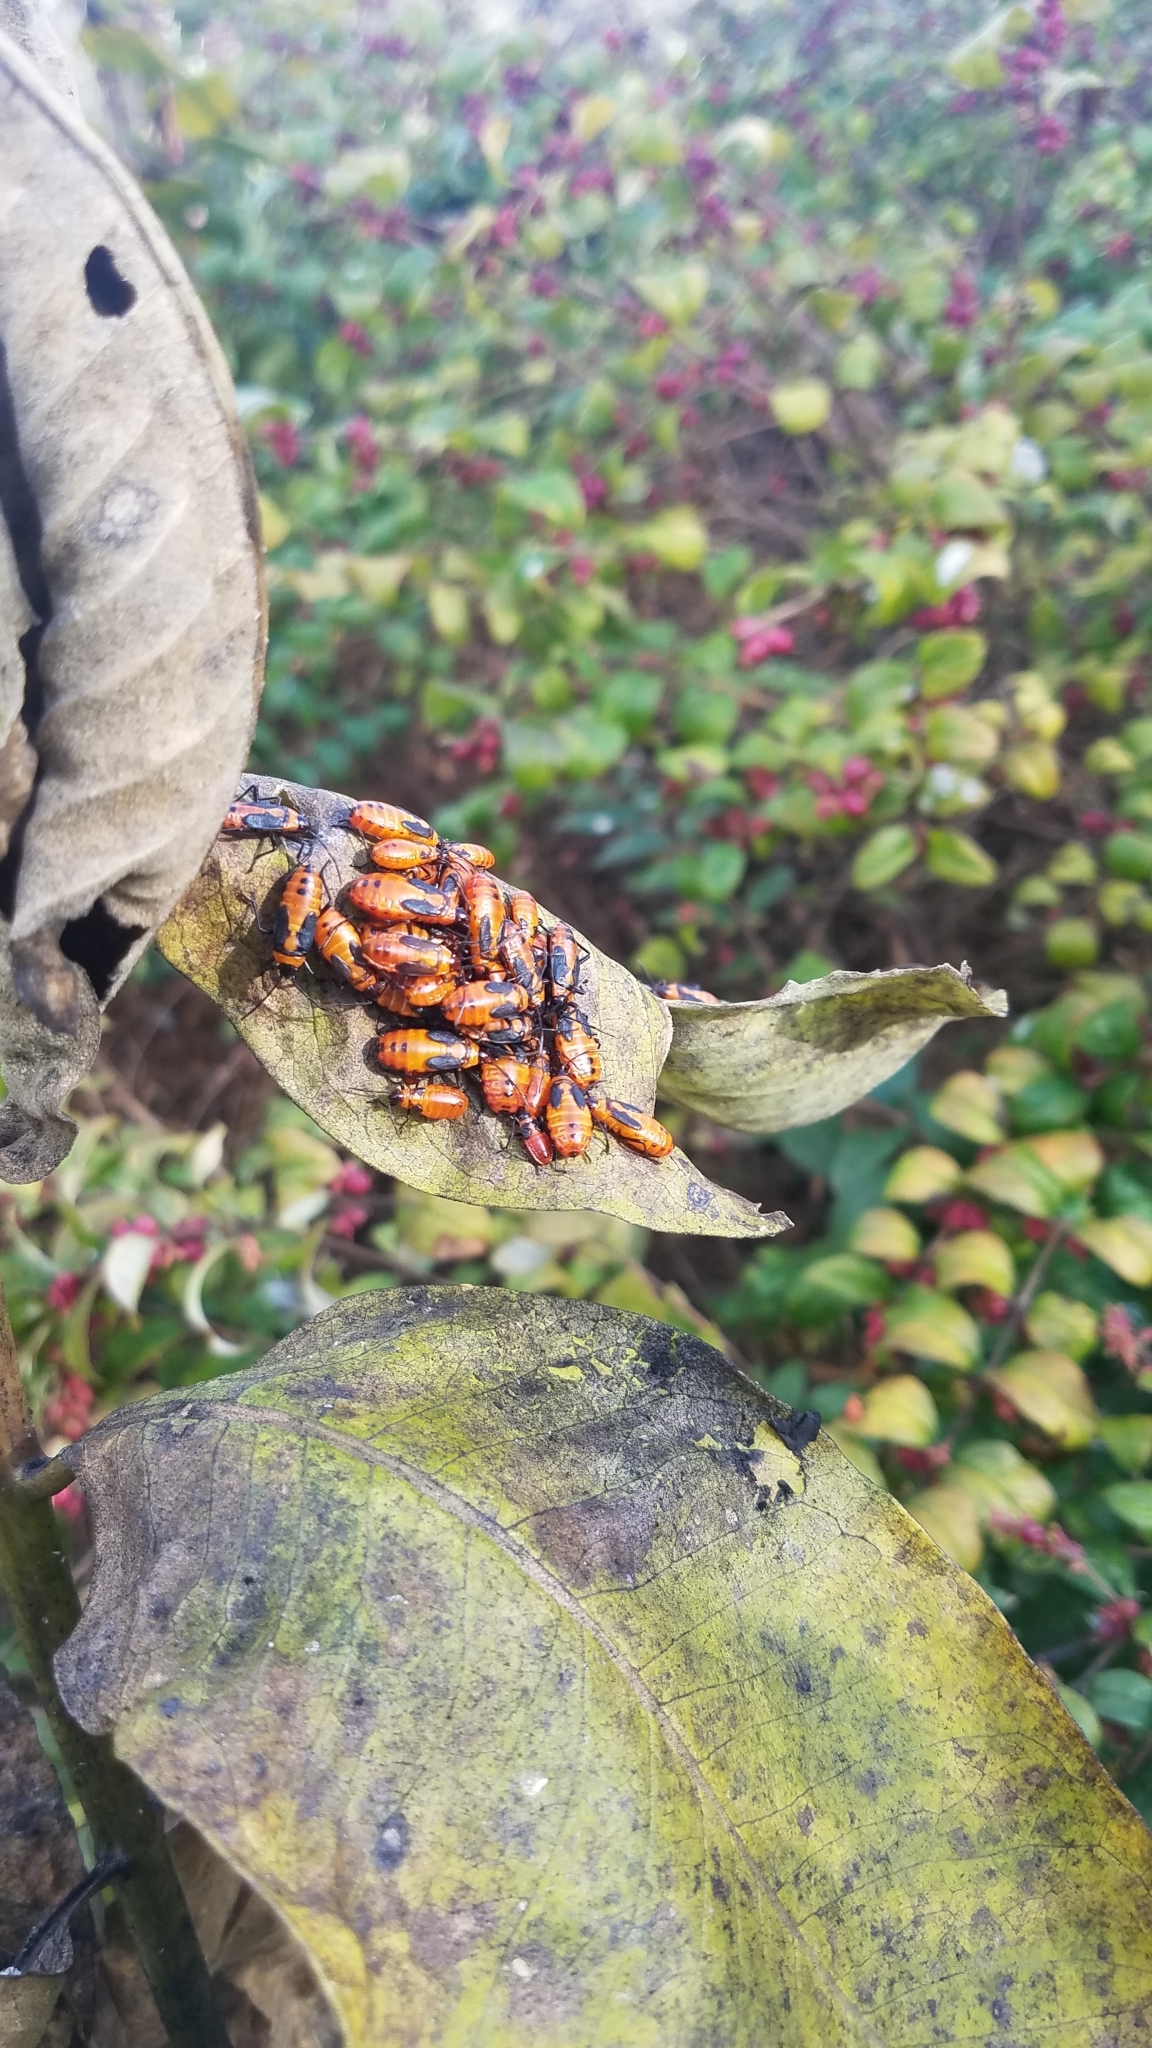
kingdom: Animalia
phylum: Arthropoda
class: Insecta
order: Hemiptera
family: Lygaeidae
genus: Oncopeltus
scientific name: Oncopeltus fasciatus
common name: Large milkweed bug
